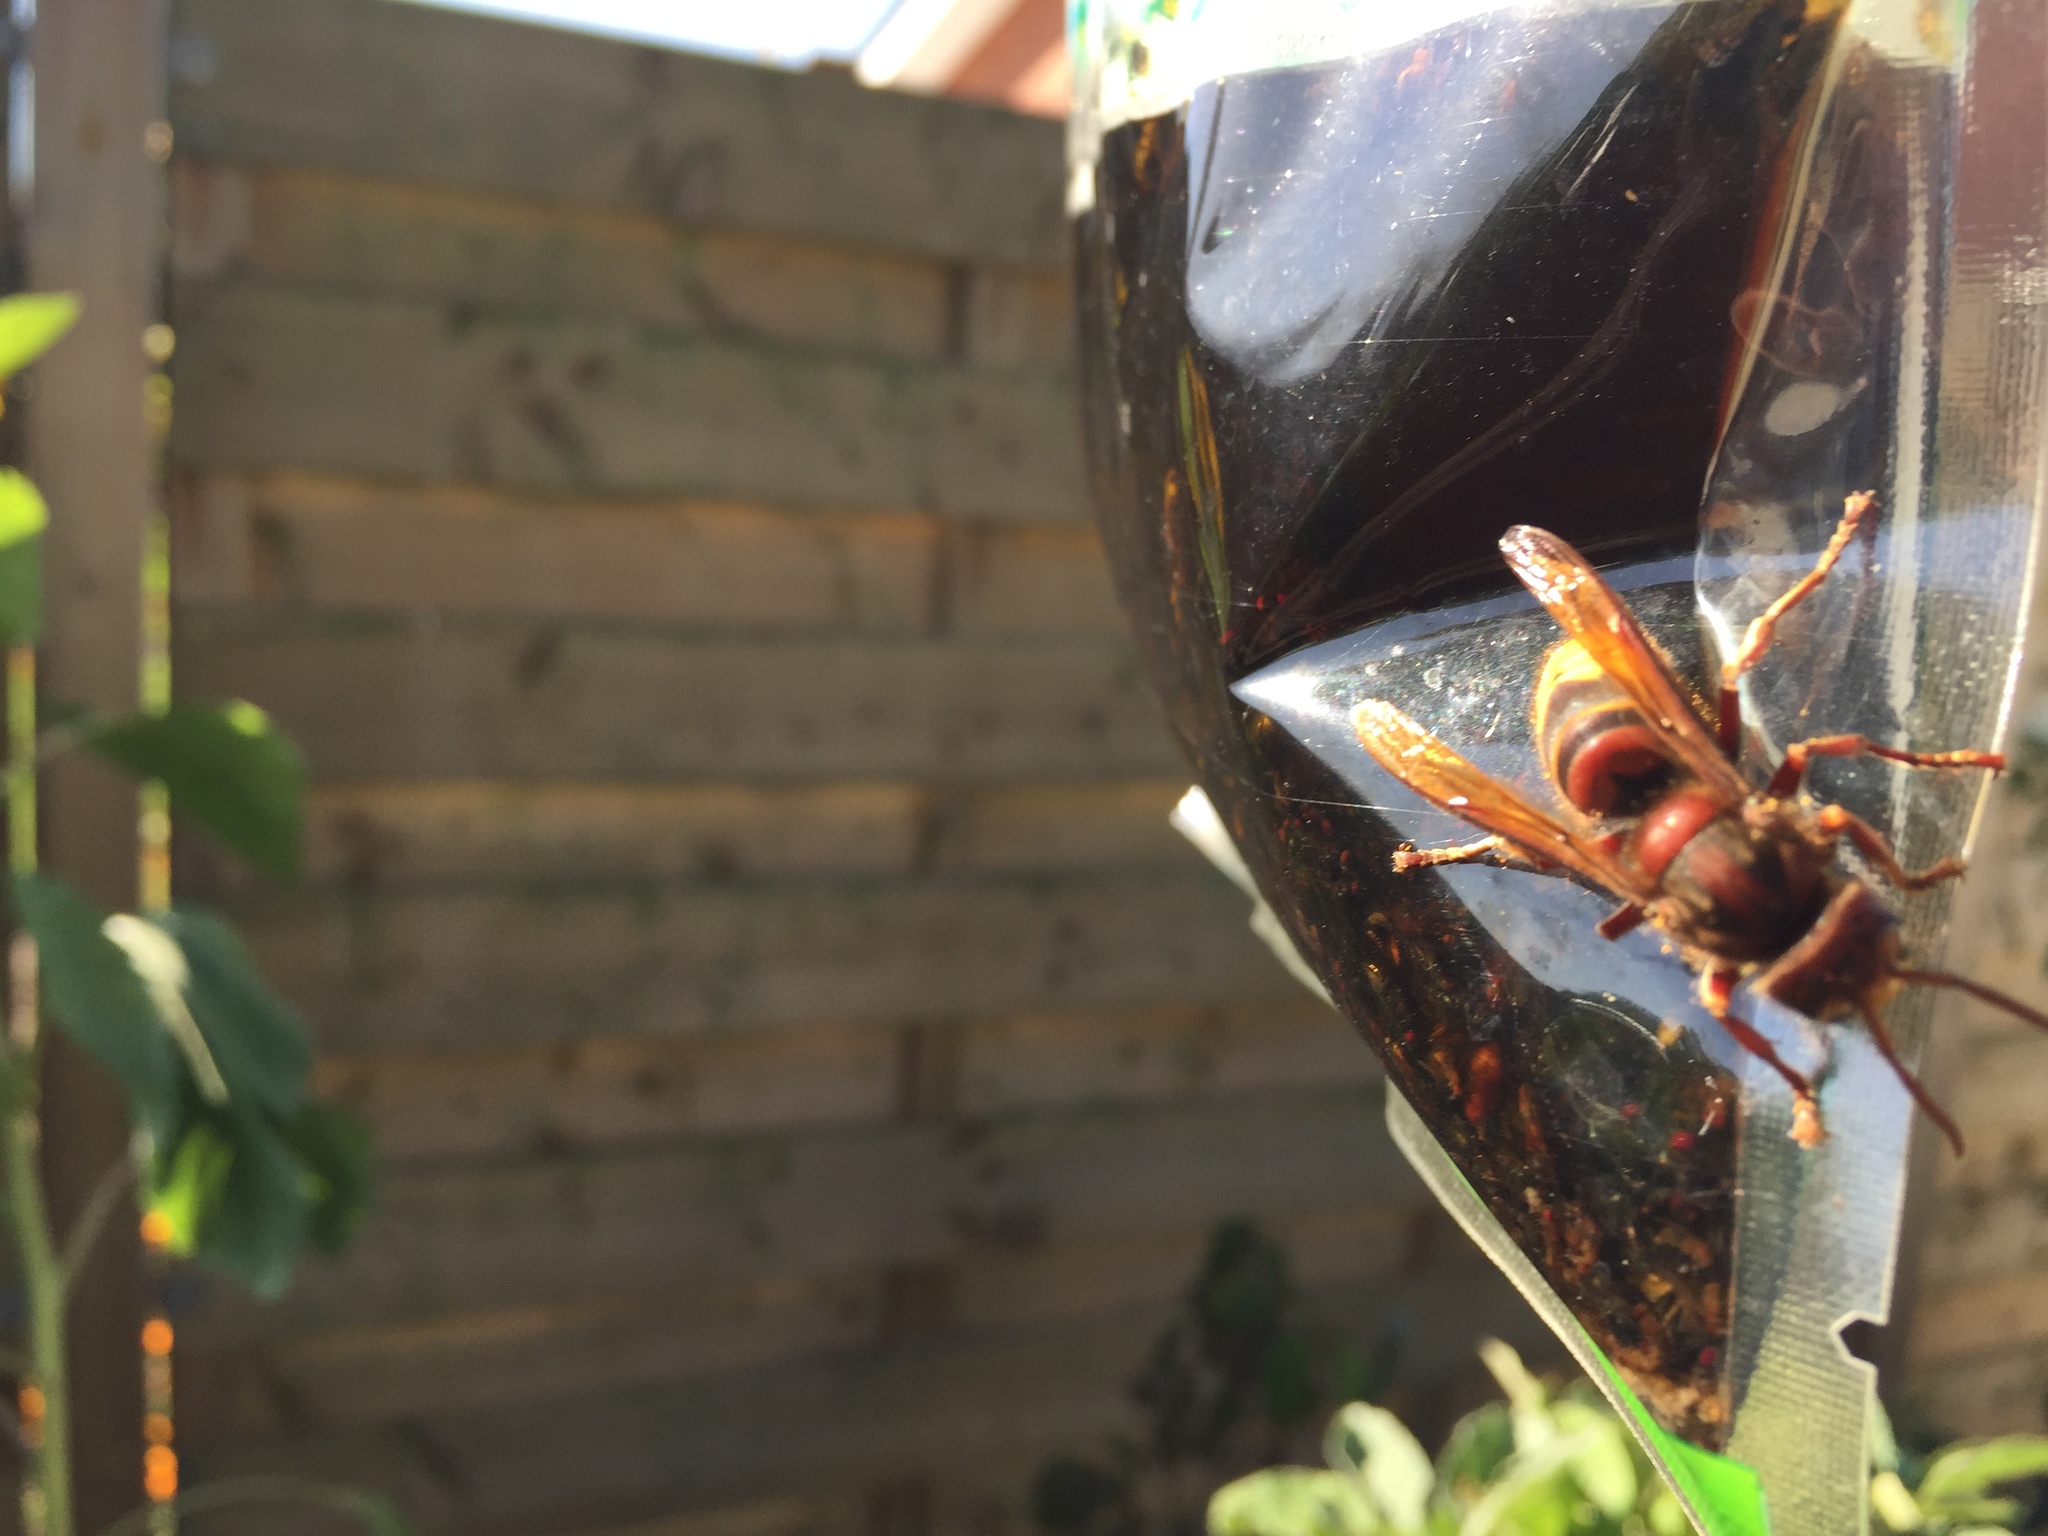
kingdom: Animalia
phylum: Arthropoda
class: Insecta
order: Hymenoptera
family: Vespidae
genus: Vespa
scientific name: Vespa crabro
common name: Hornet
